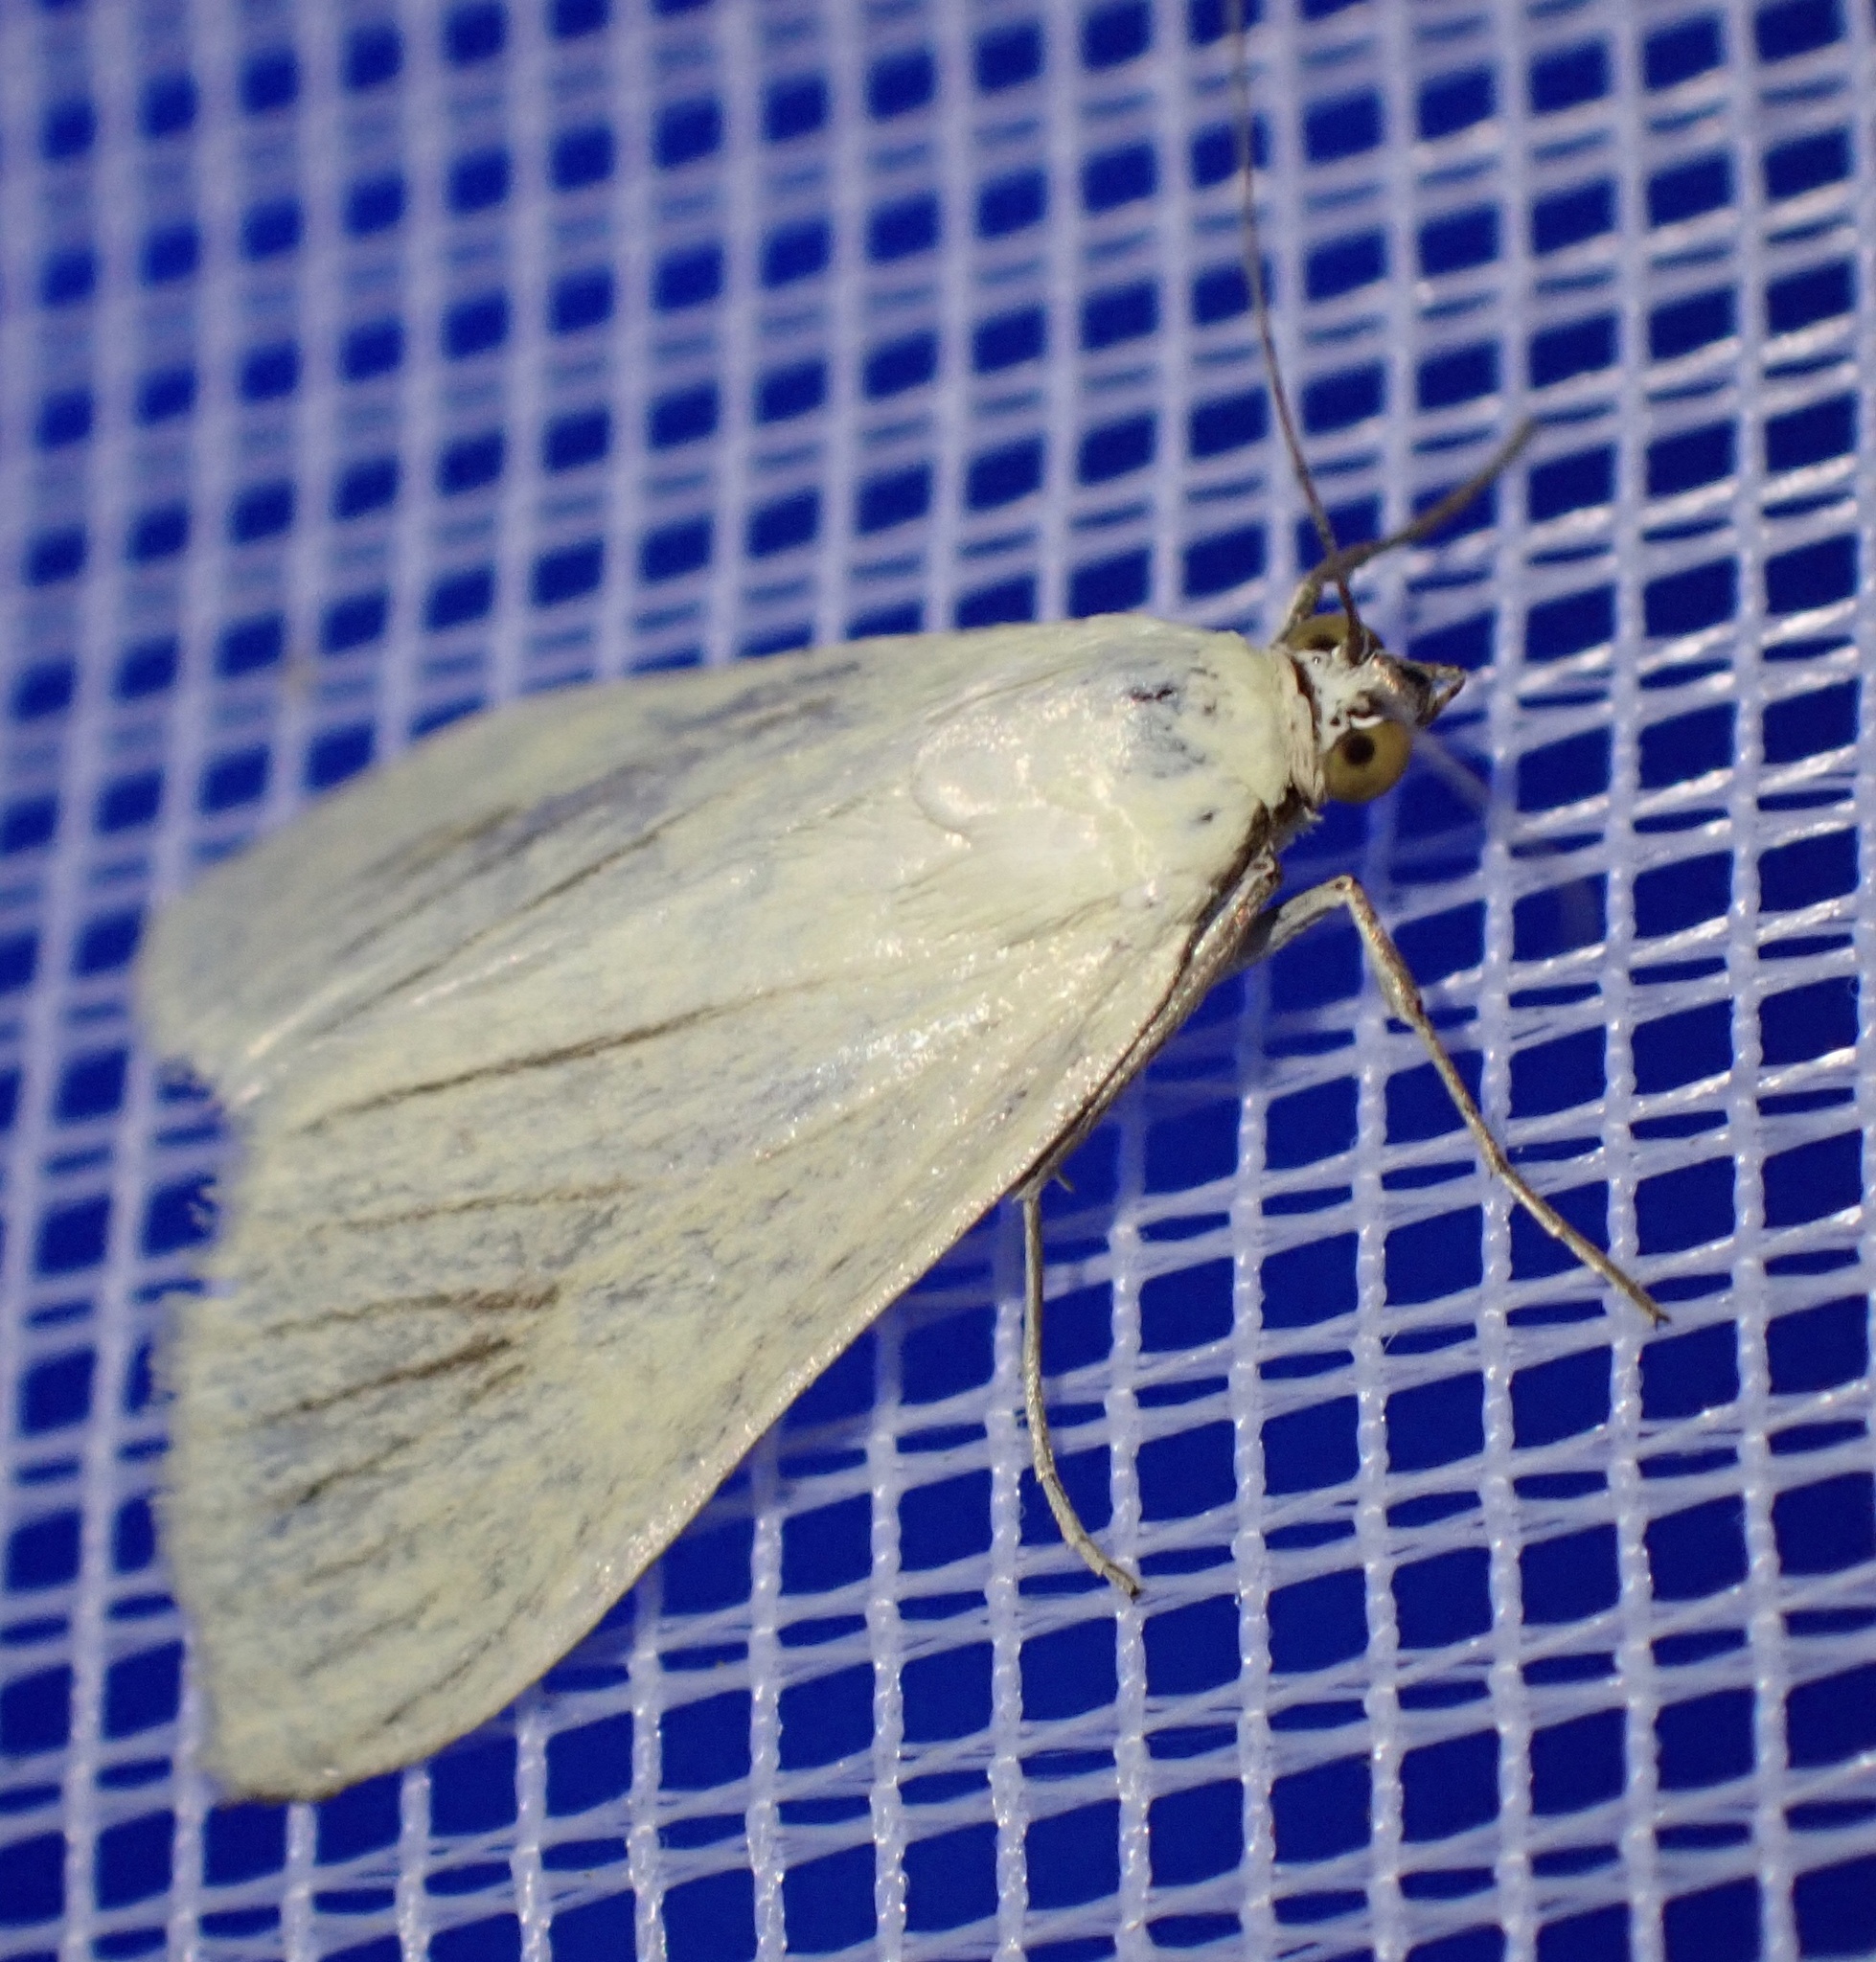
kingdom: Animalia
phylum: Arthropoda
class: Insecta
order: Lepidoptera
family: Crambidae
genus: Sitochroa
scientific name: Sitochroa palealis
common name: Greenish-yellow sitochroa moth
